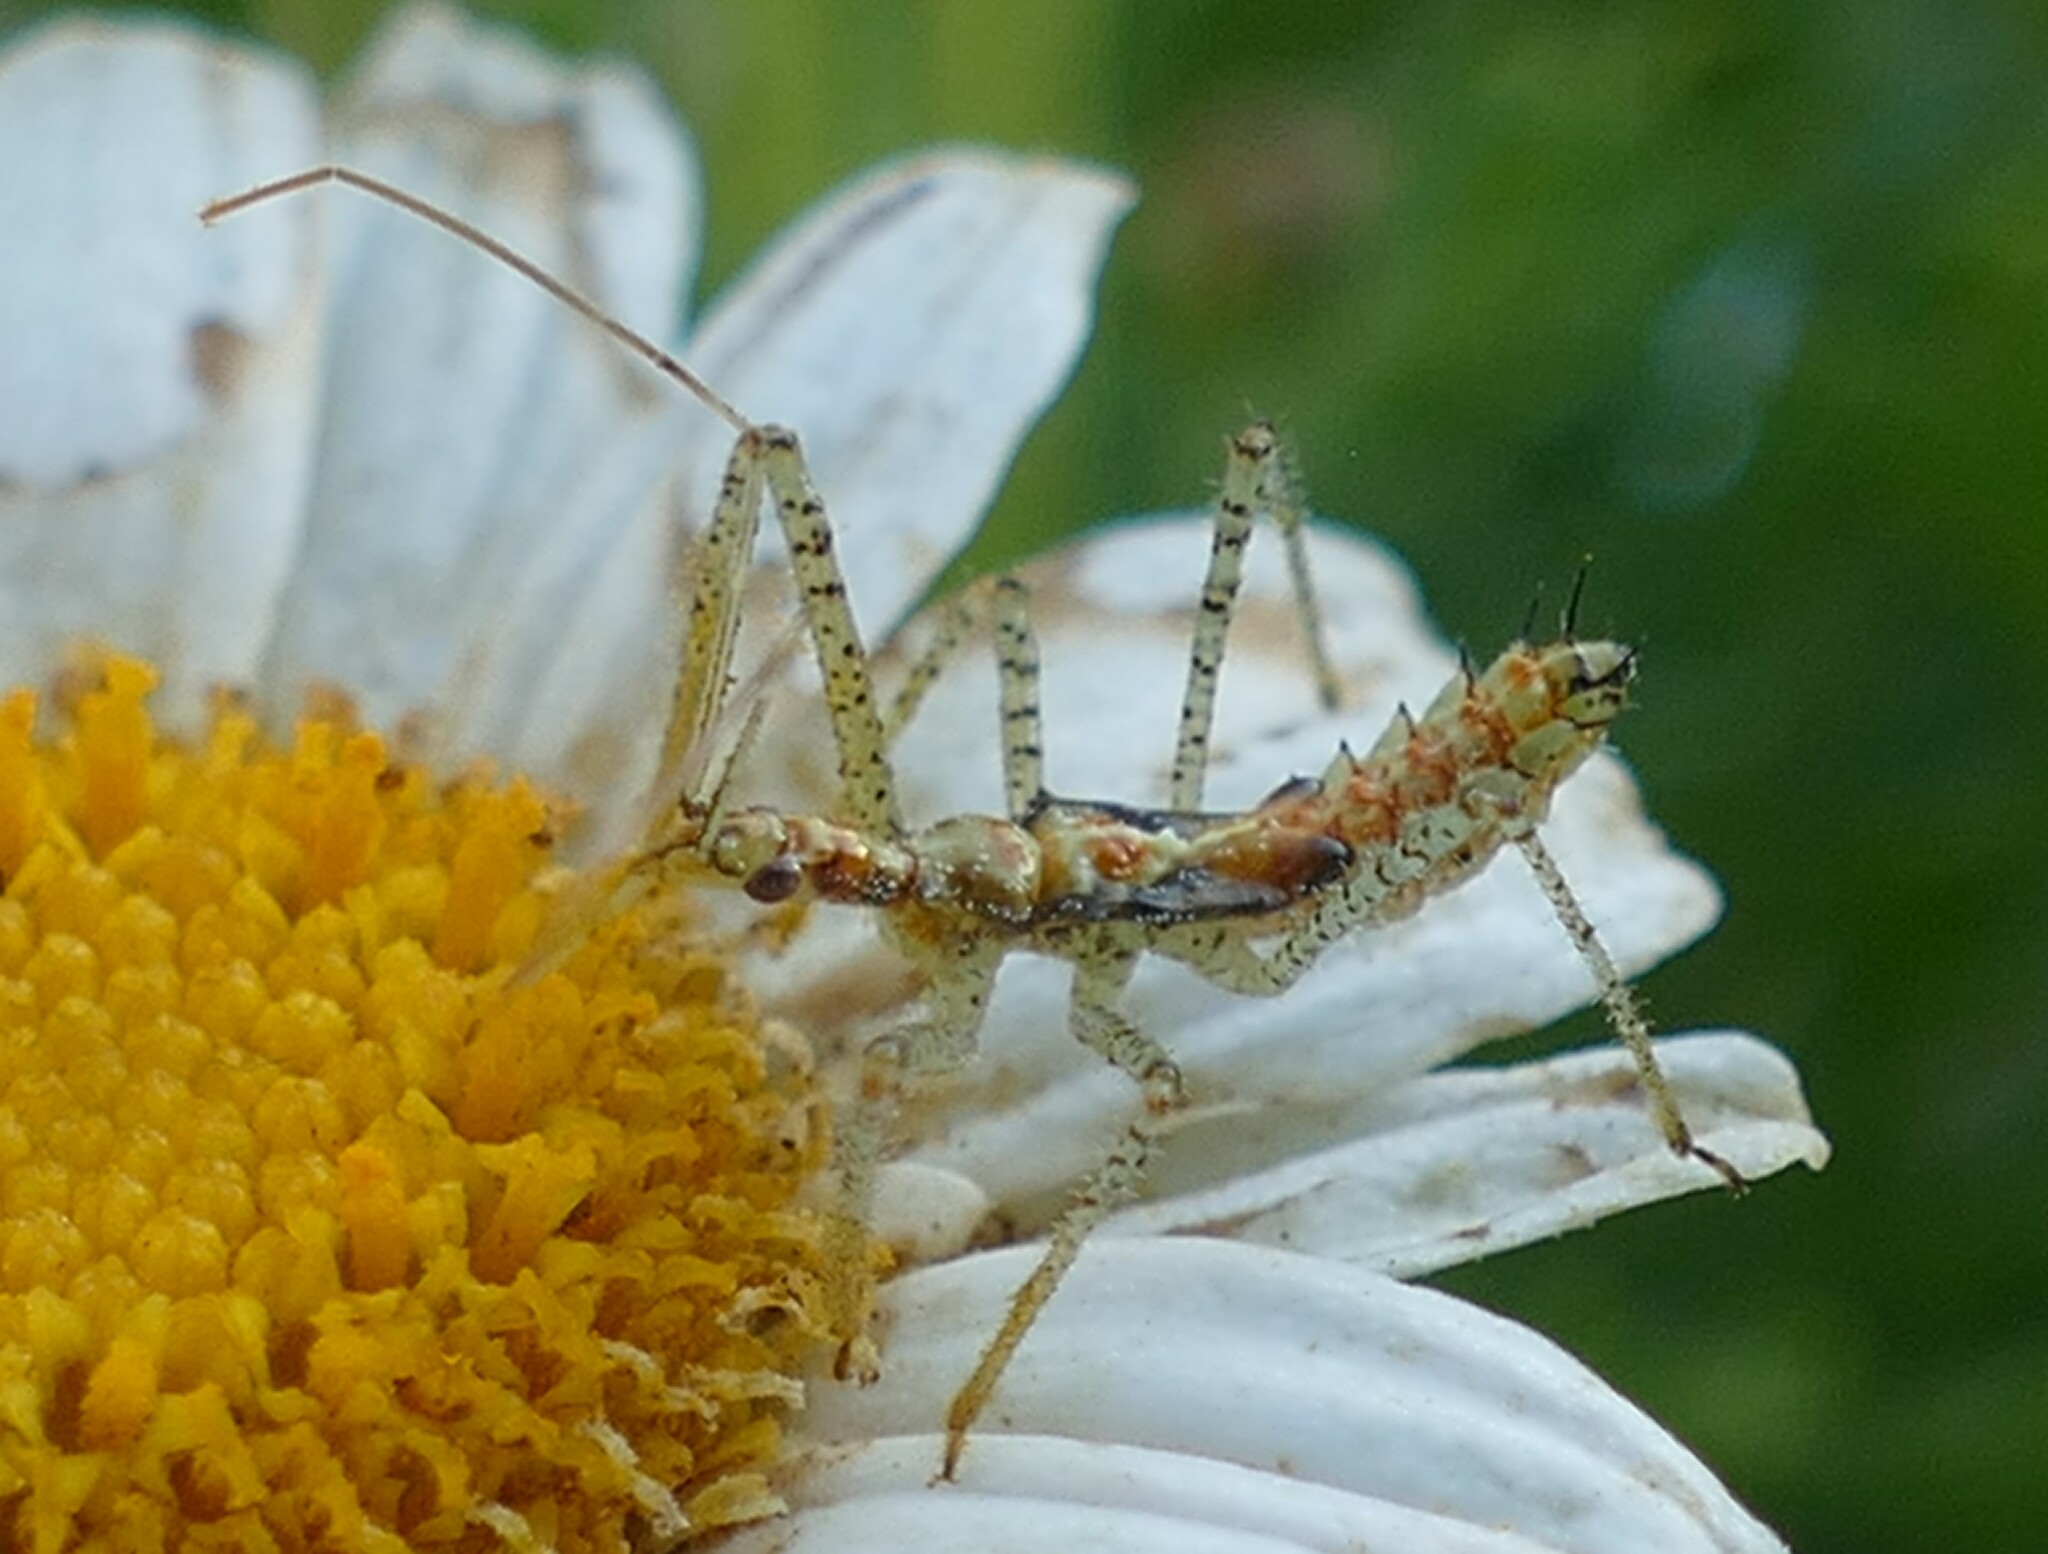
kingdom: Animalia
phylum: Arthropoda
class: Insecta
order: Hemiptera
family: Reduviidae
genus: Zelus
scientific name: Zelus renardii
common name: Assassin bug
